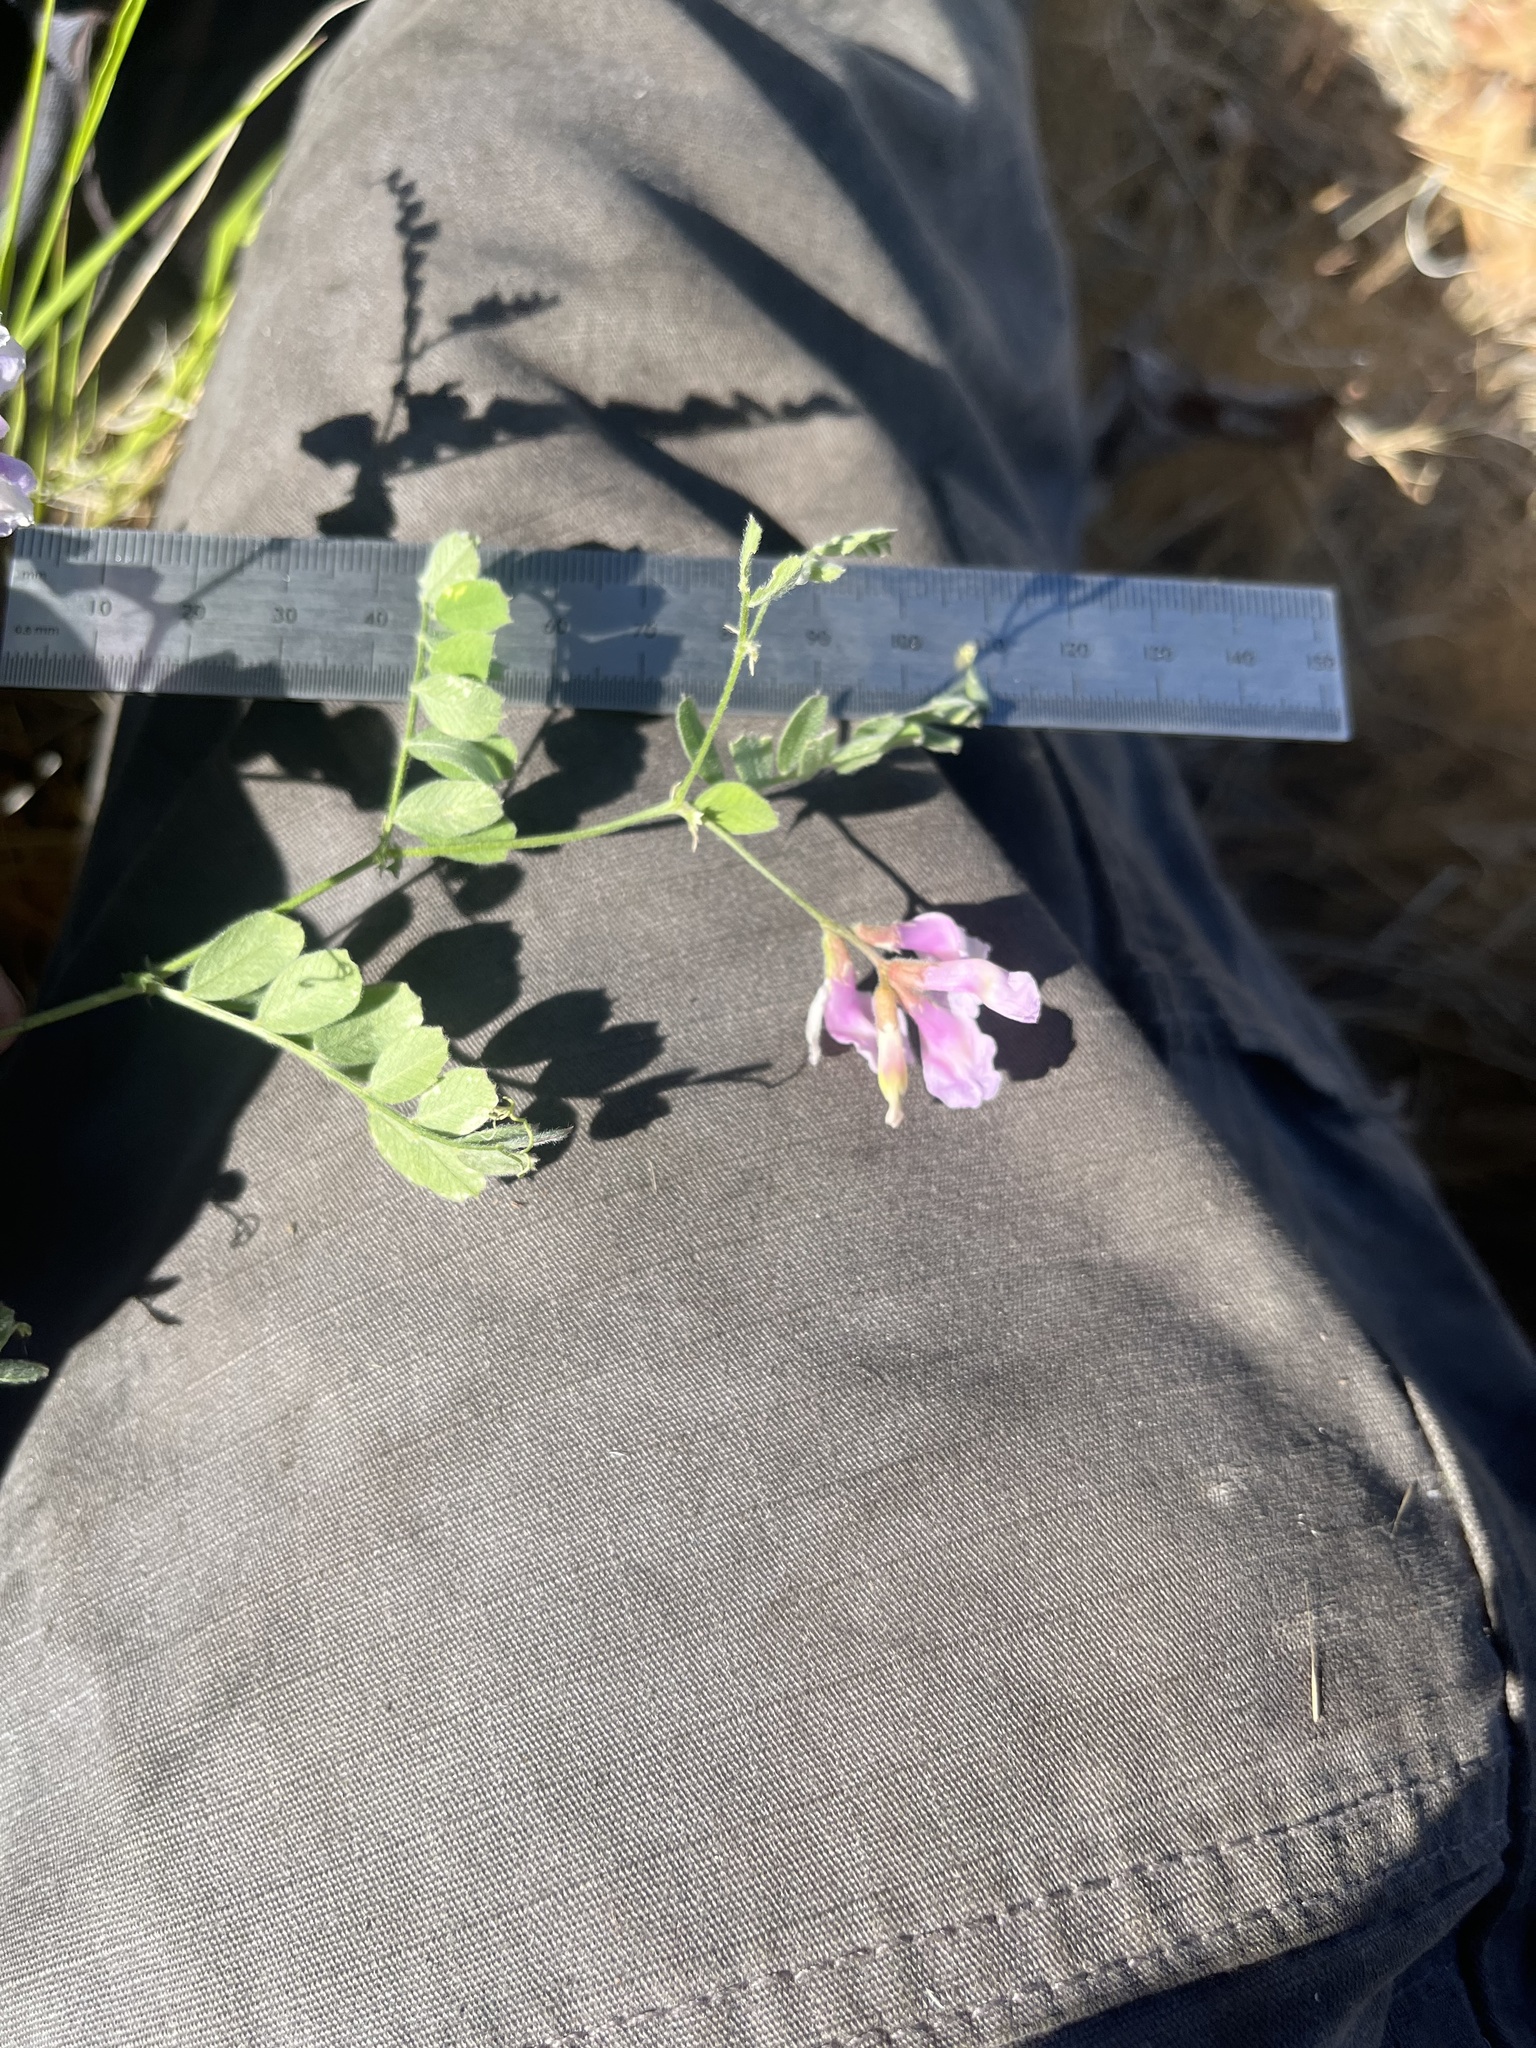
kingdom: Plantae
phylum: Tracheophyta
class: Magnoliopsida
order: Fabales
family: Fabaceae
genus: Vicia
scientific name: Vicia americana
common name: American vetch
